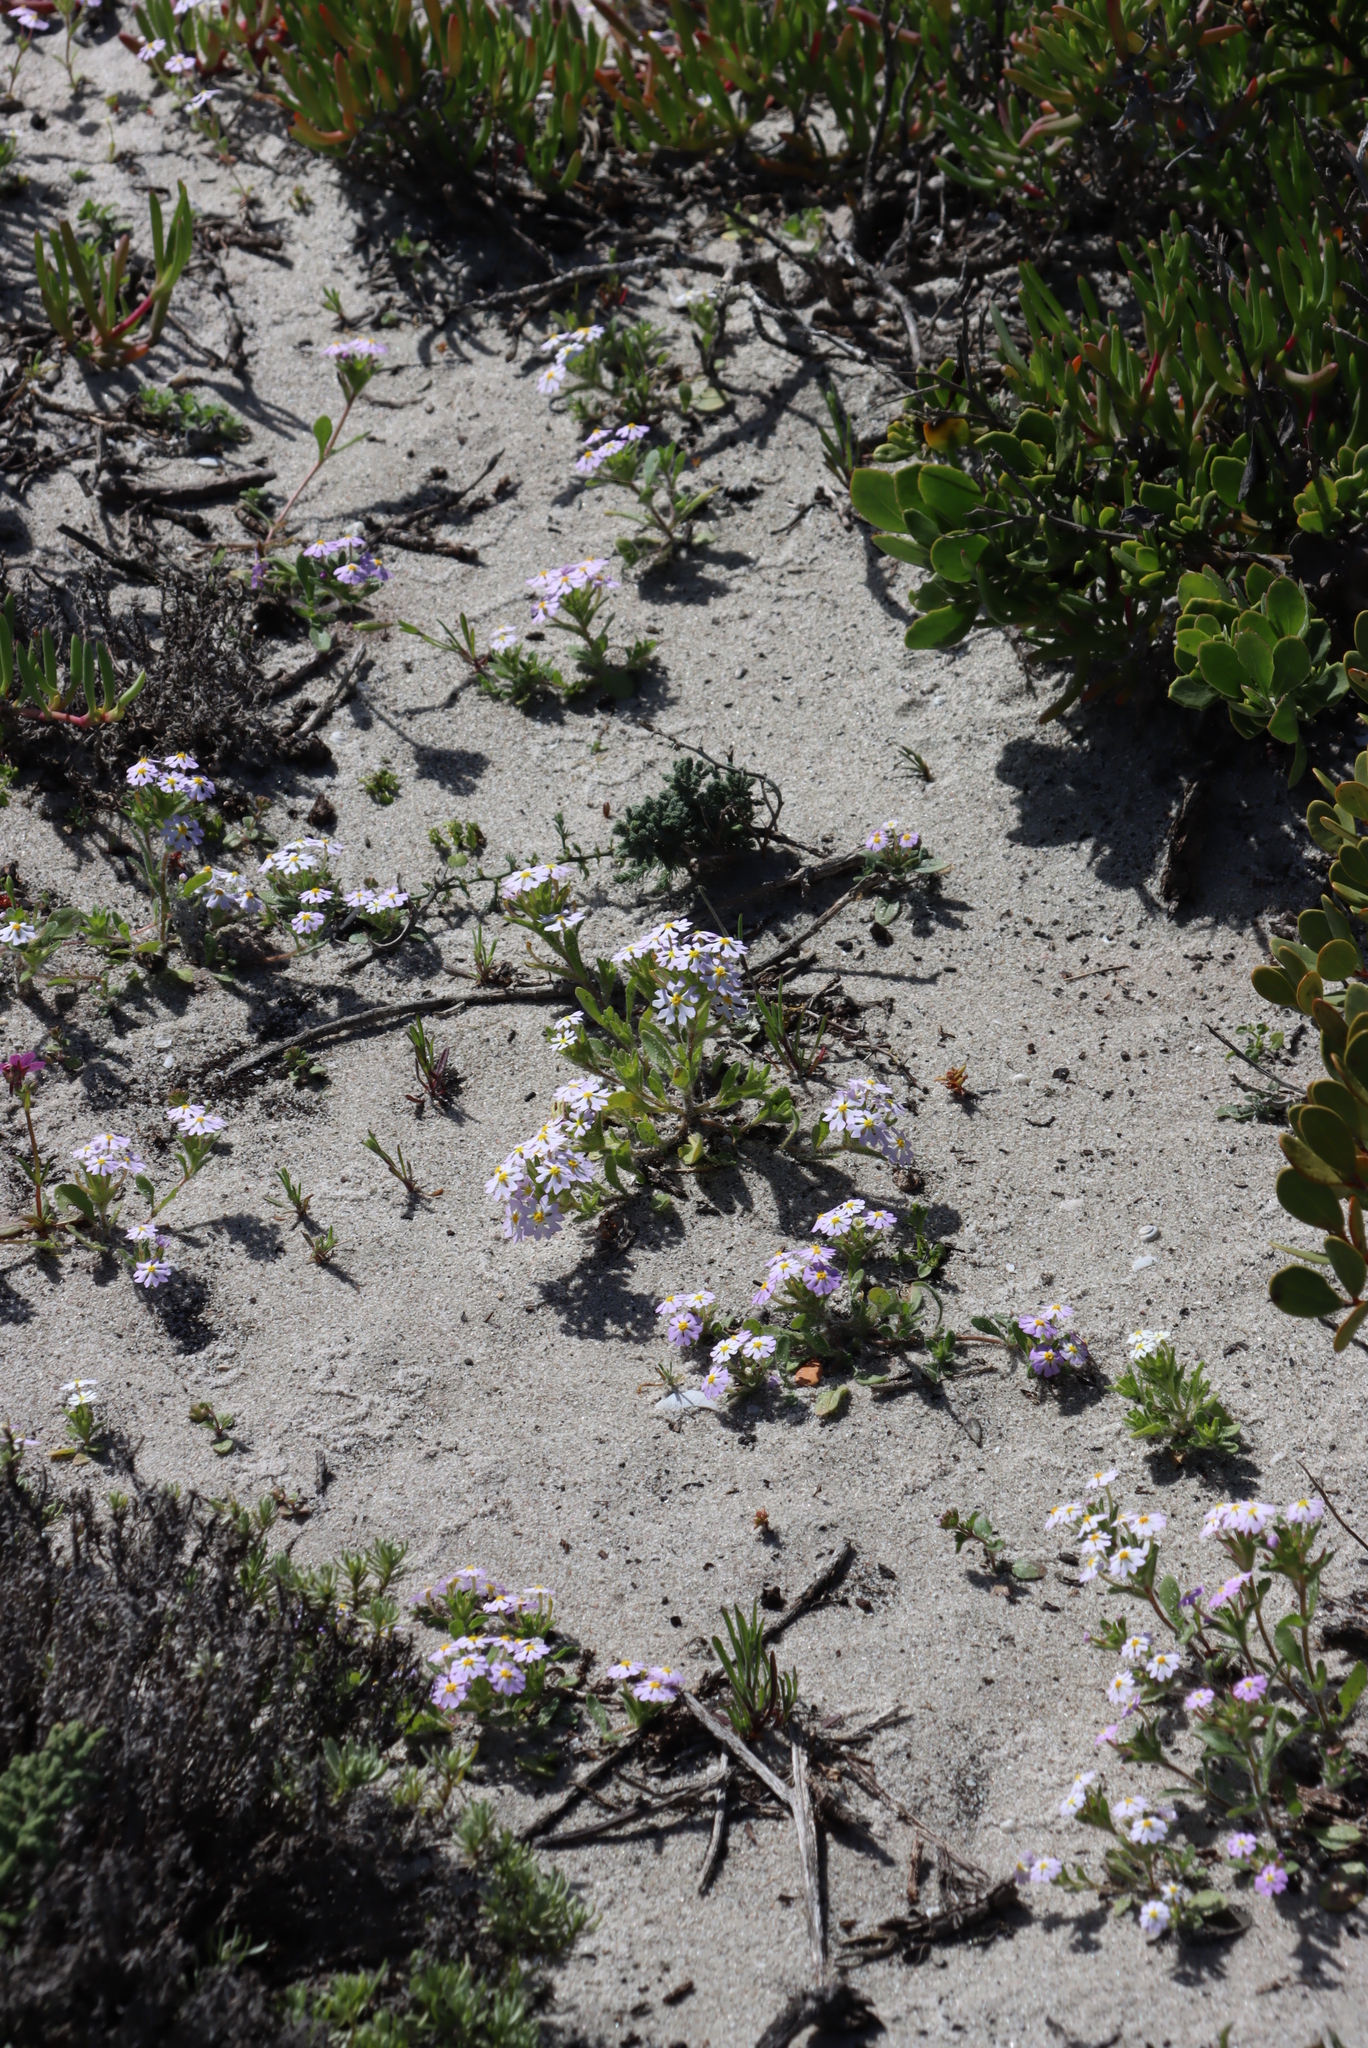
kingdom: Plantae
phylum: Tracheophyta
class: Magnoliopsida
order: Lamiales
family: Scrophulariaceae
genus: Zaluzianskya
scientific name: Zaluzianskya villosa
